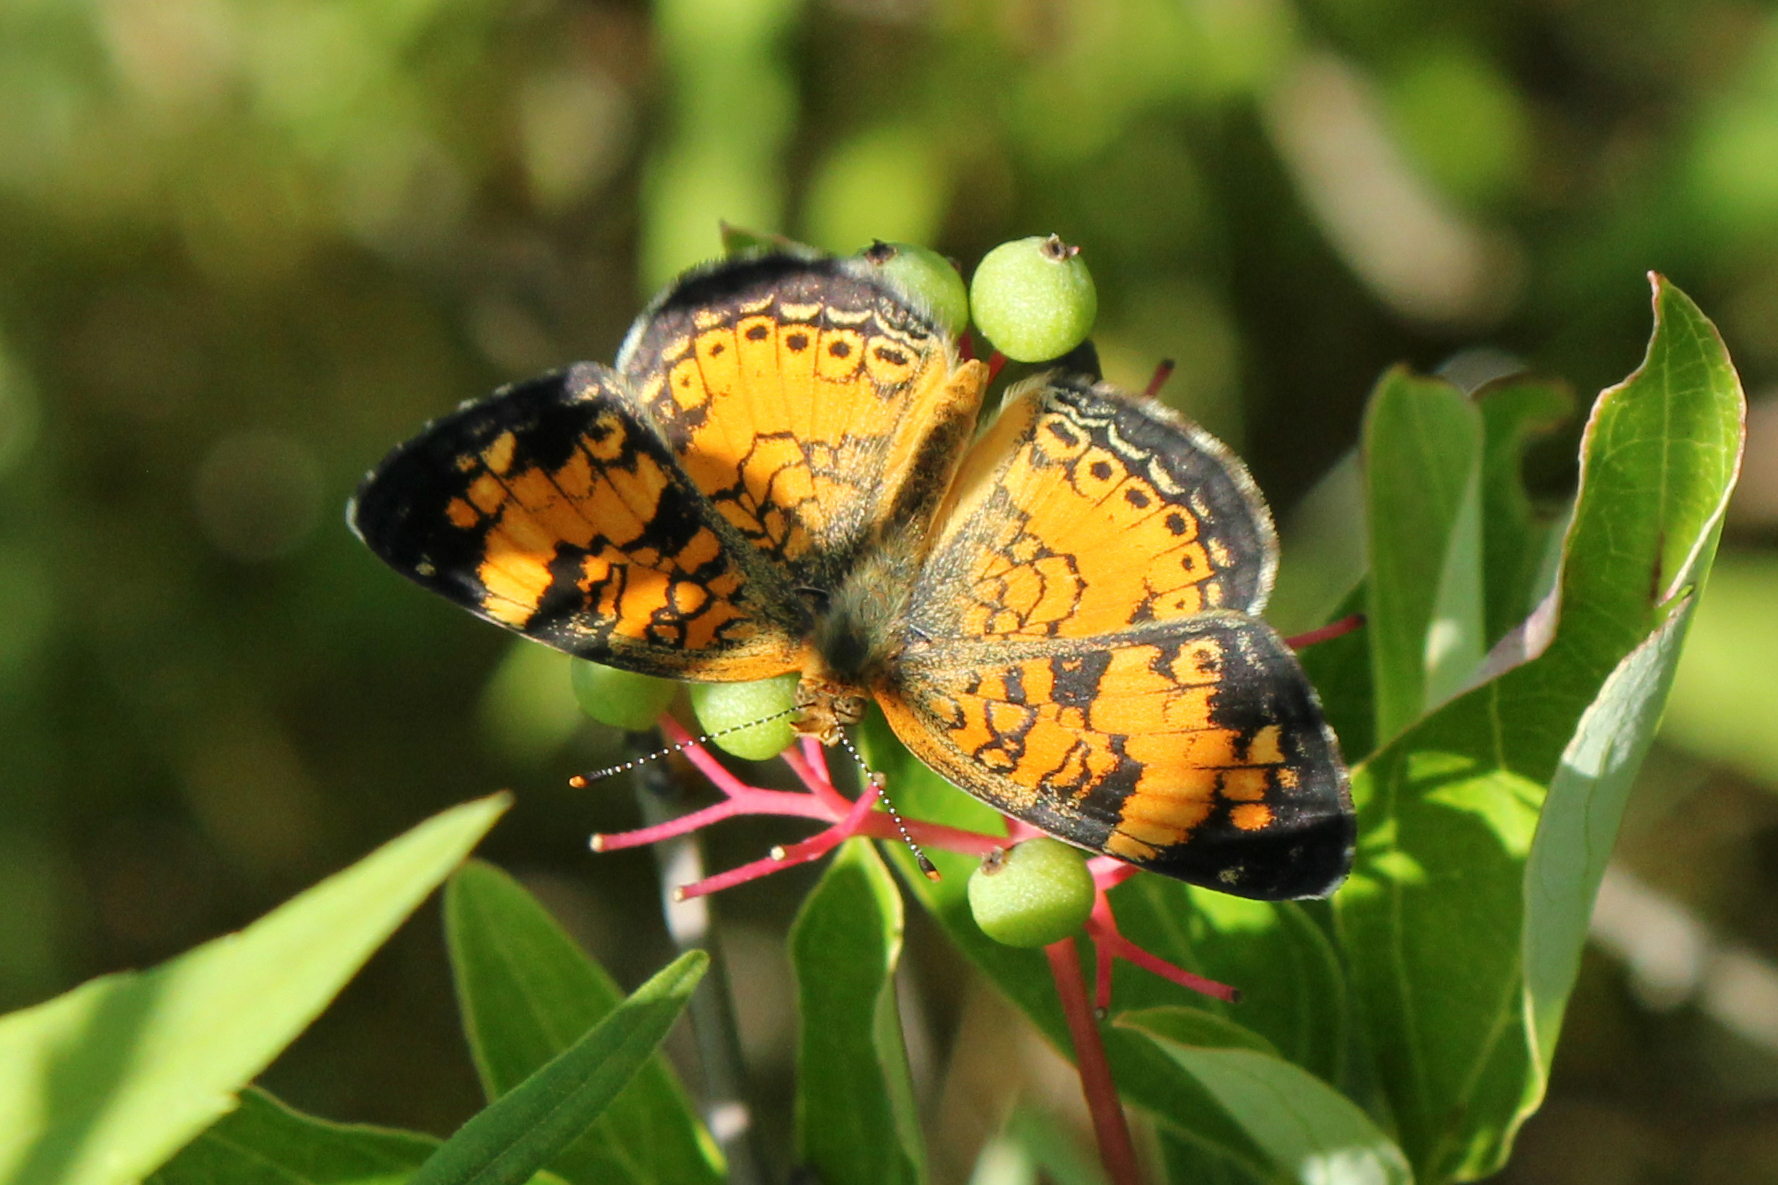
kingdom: Animalia
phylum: Arthropoda
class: Insecta
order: Lepidoptera
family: Nymphalidae
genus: Phyciodes
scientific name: Phyciodes tharos
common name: Pearl crescent
